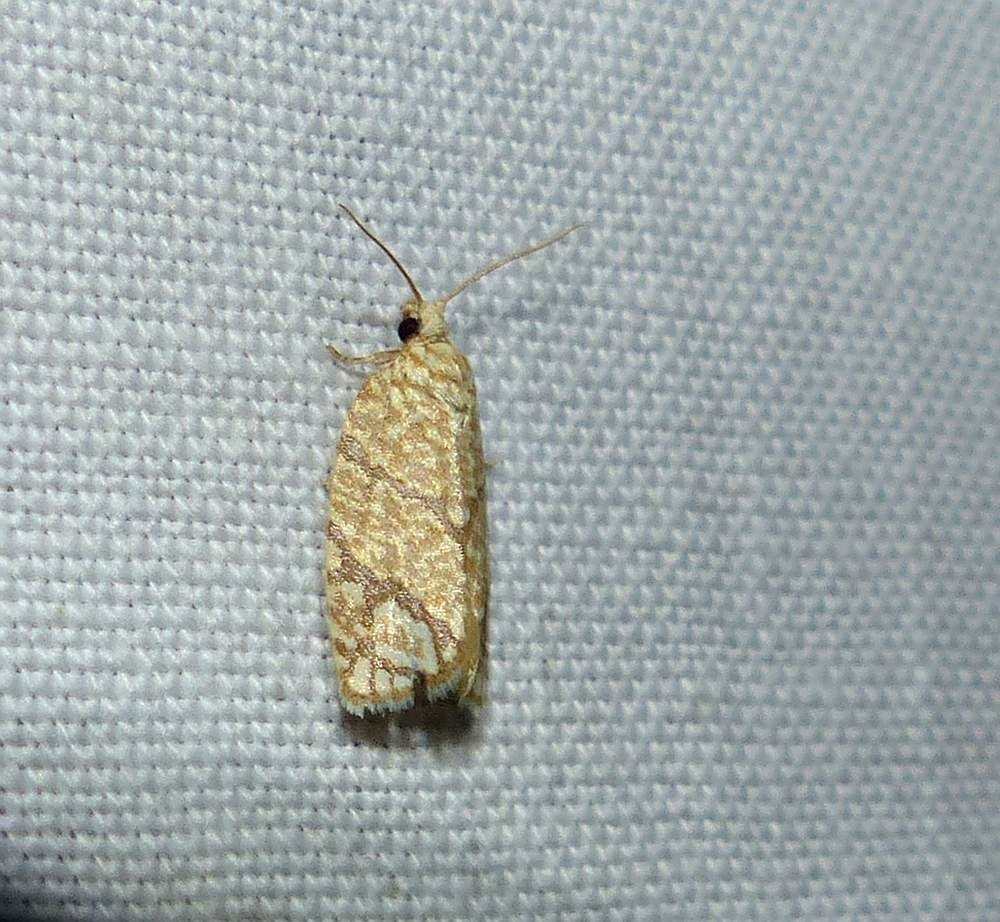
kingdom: Animalia
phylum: Arthropoda
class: Insecta
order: Lepidoptera
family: Tortricidae
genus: Argyrotaenia
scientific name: Argyrotaenia quercifoliana
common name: Yellow-winged oak leafroller moth
